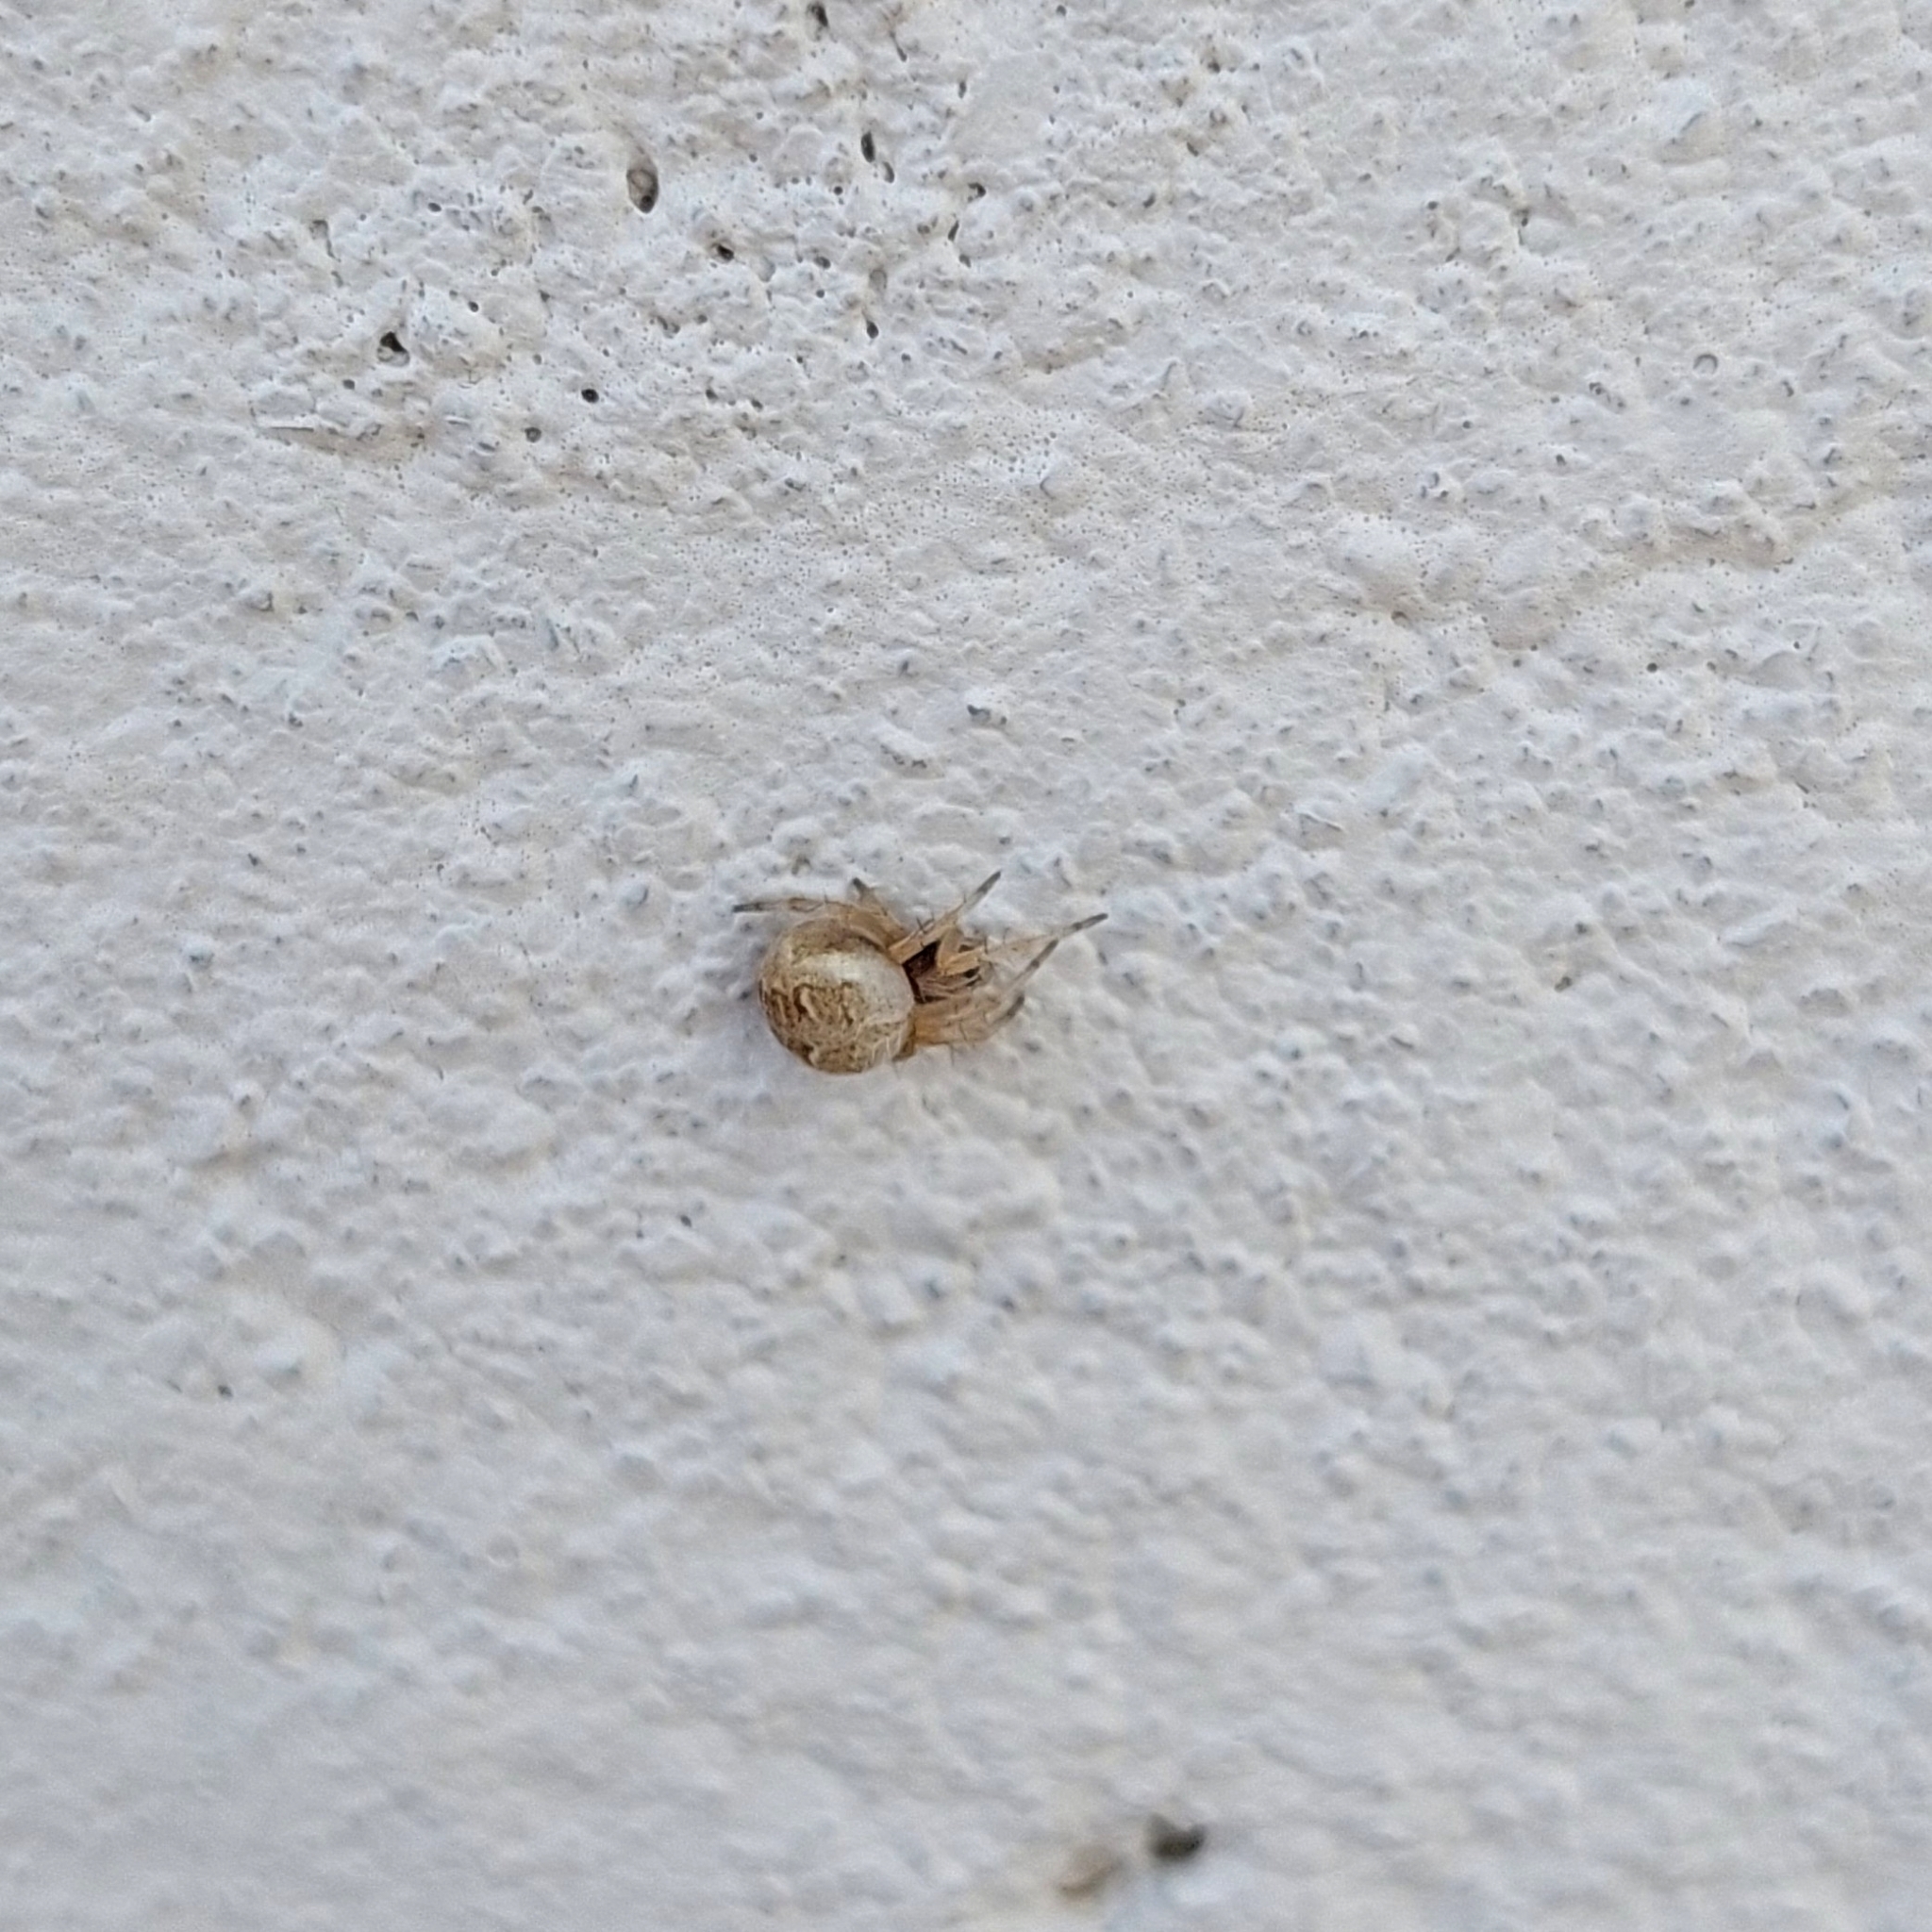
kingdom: Animalia
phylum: Arthropoda
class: Arachnida
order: Araneae
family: Araneidae
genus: Metepeira
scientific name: Metepeira
